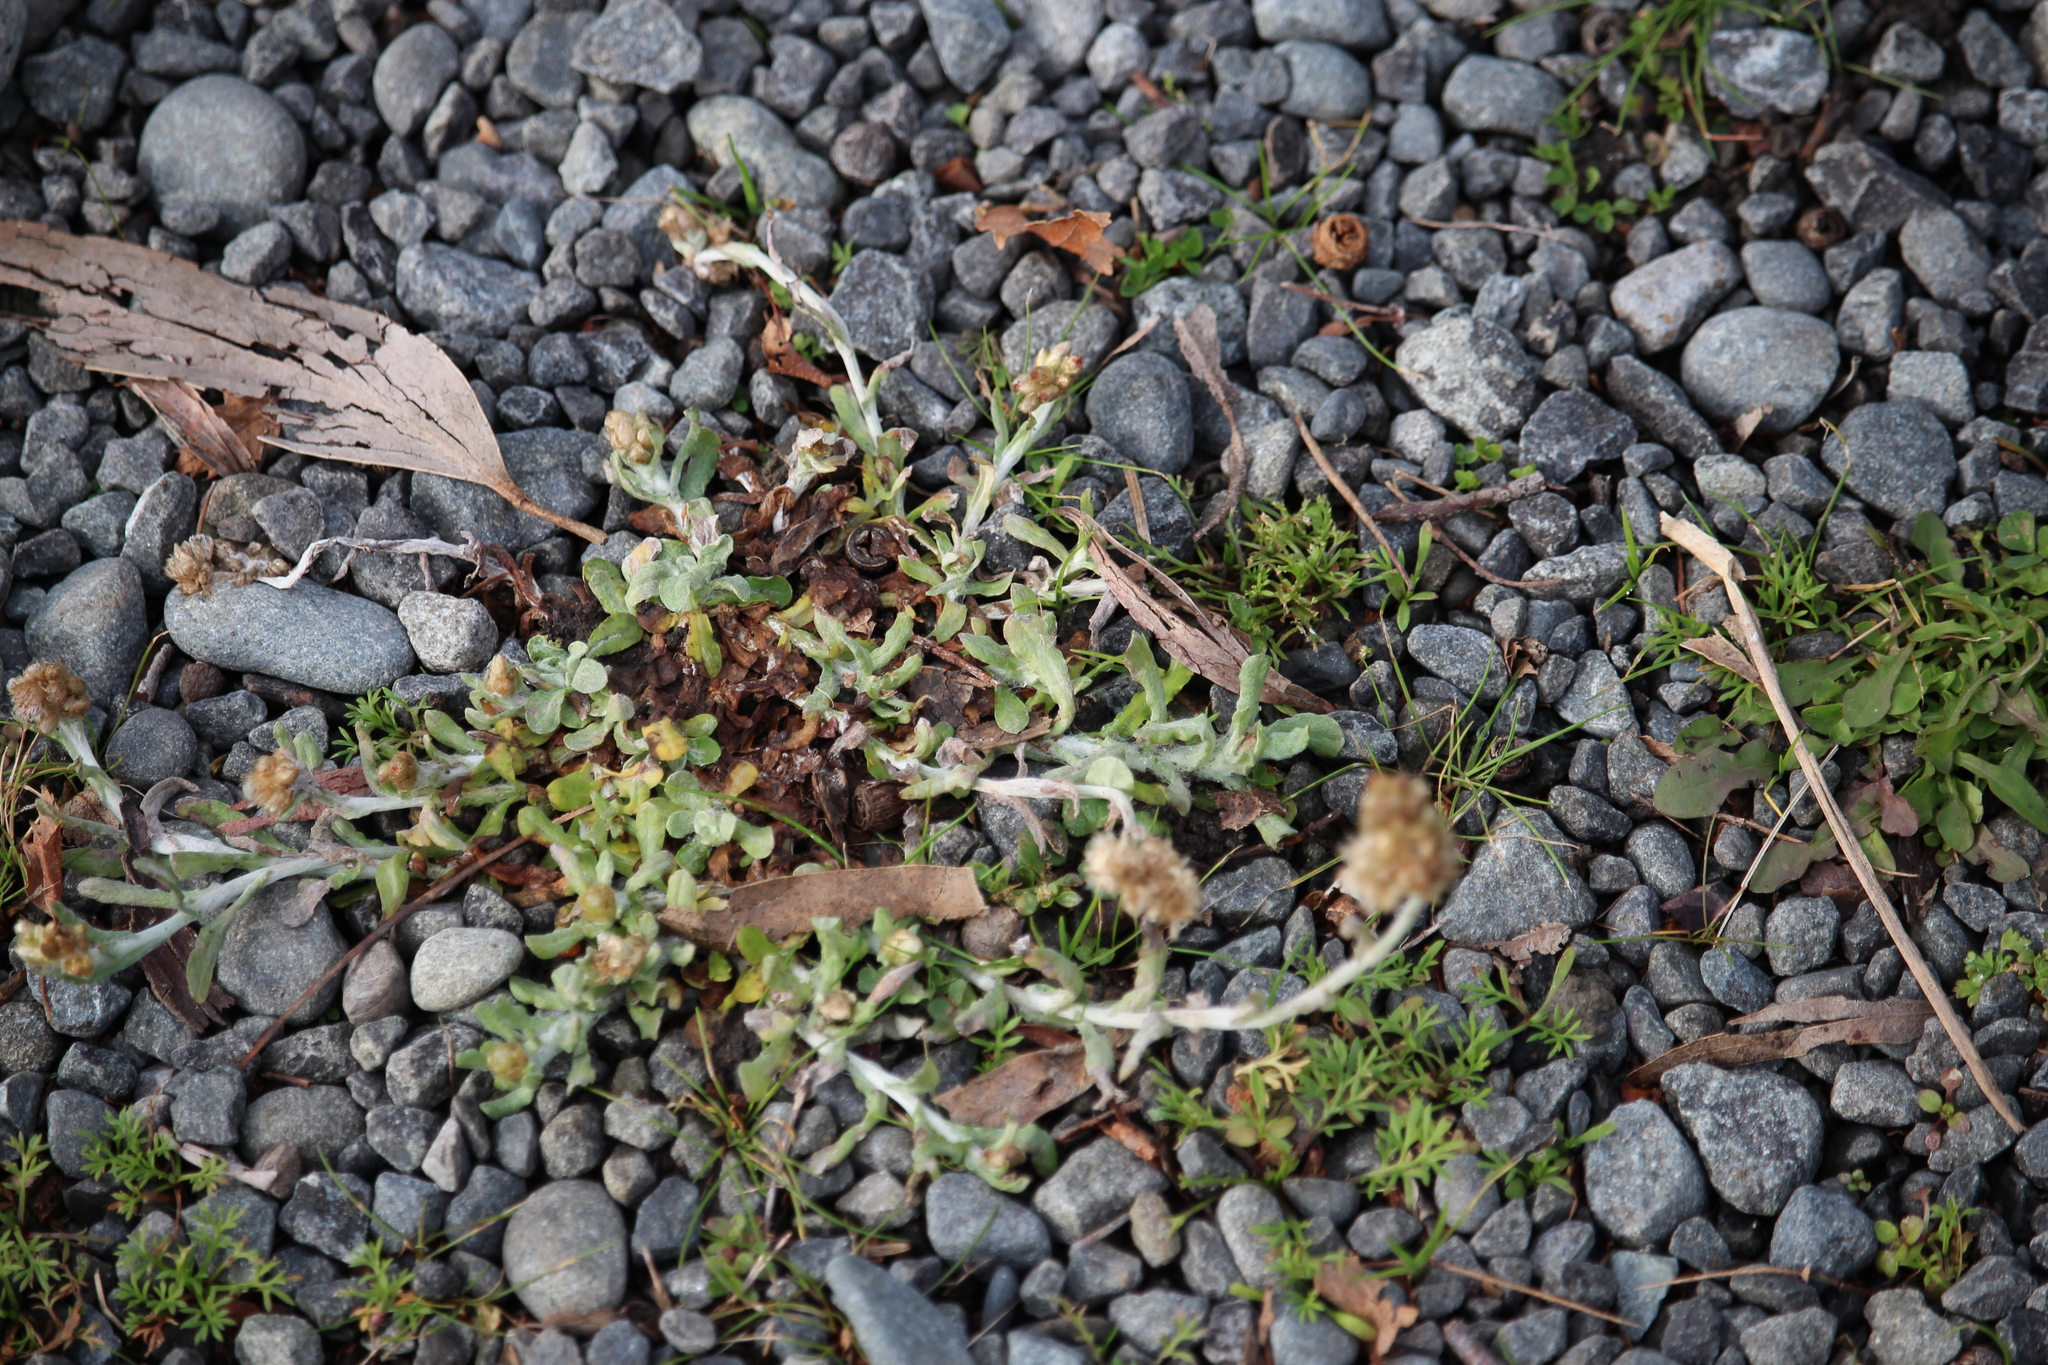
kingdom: Plantae
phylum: Tracheophyta
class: Magnoliopsida
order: Asterales
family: Asteraceae
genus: Helichrysum
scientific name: Helichrysum luteoalbum
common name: Daisy
